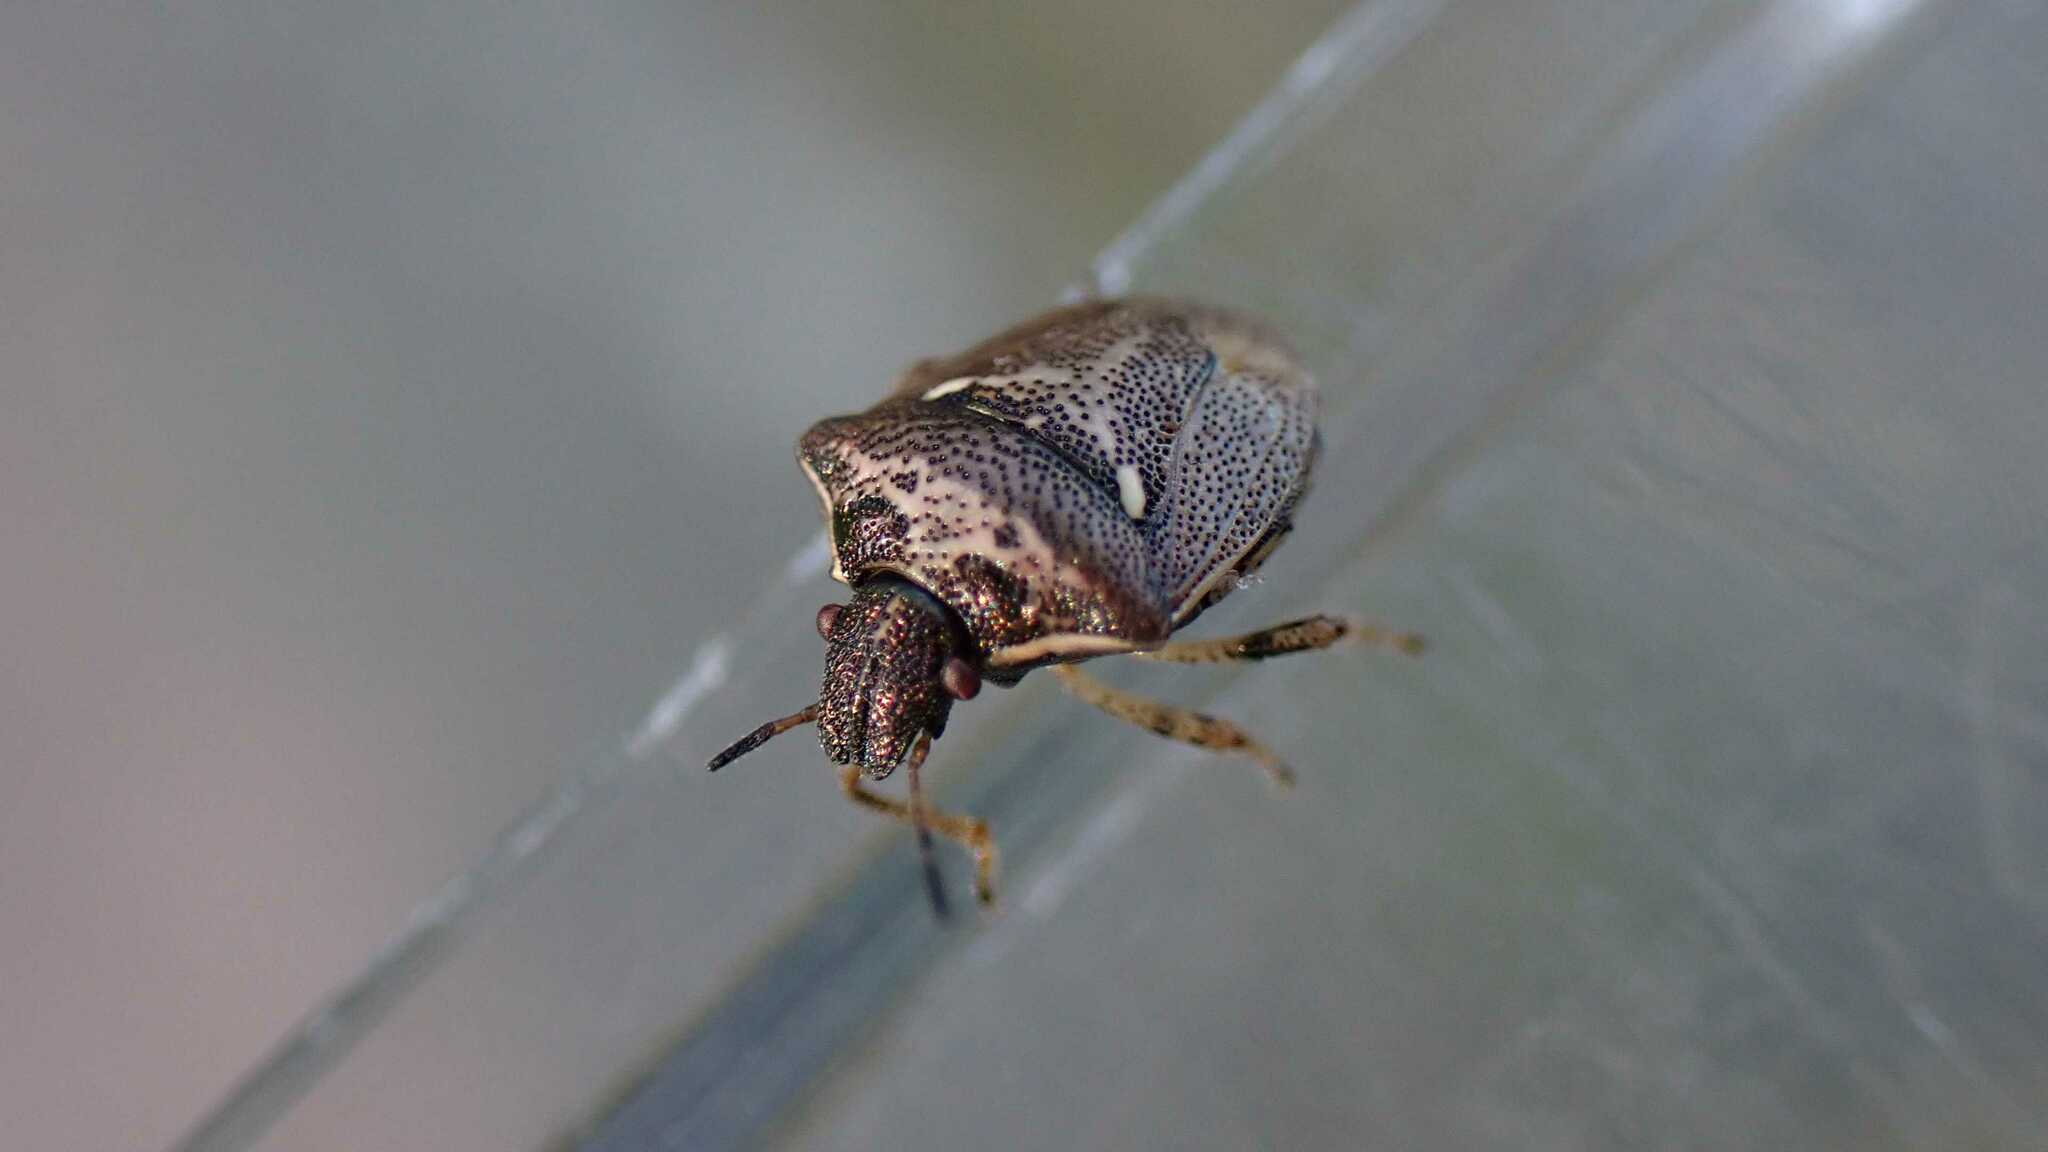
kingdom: Animalia
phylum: Arthropoda
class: Insecta
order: Hemiptera
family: Pentatomidae
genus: Eysarcoris
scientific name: Eysarcoris aeneus
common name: New forest shieldbug
